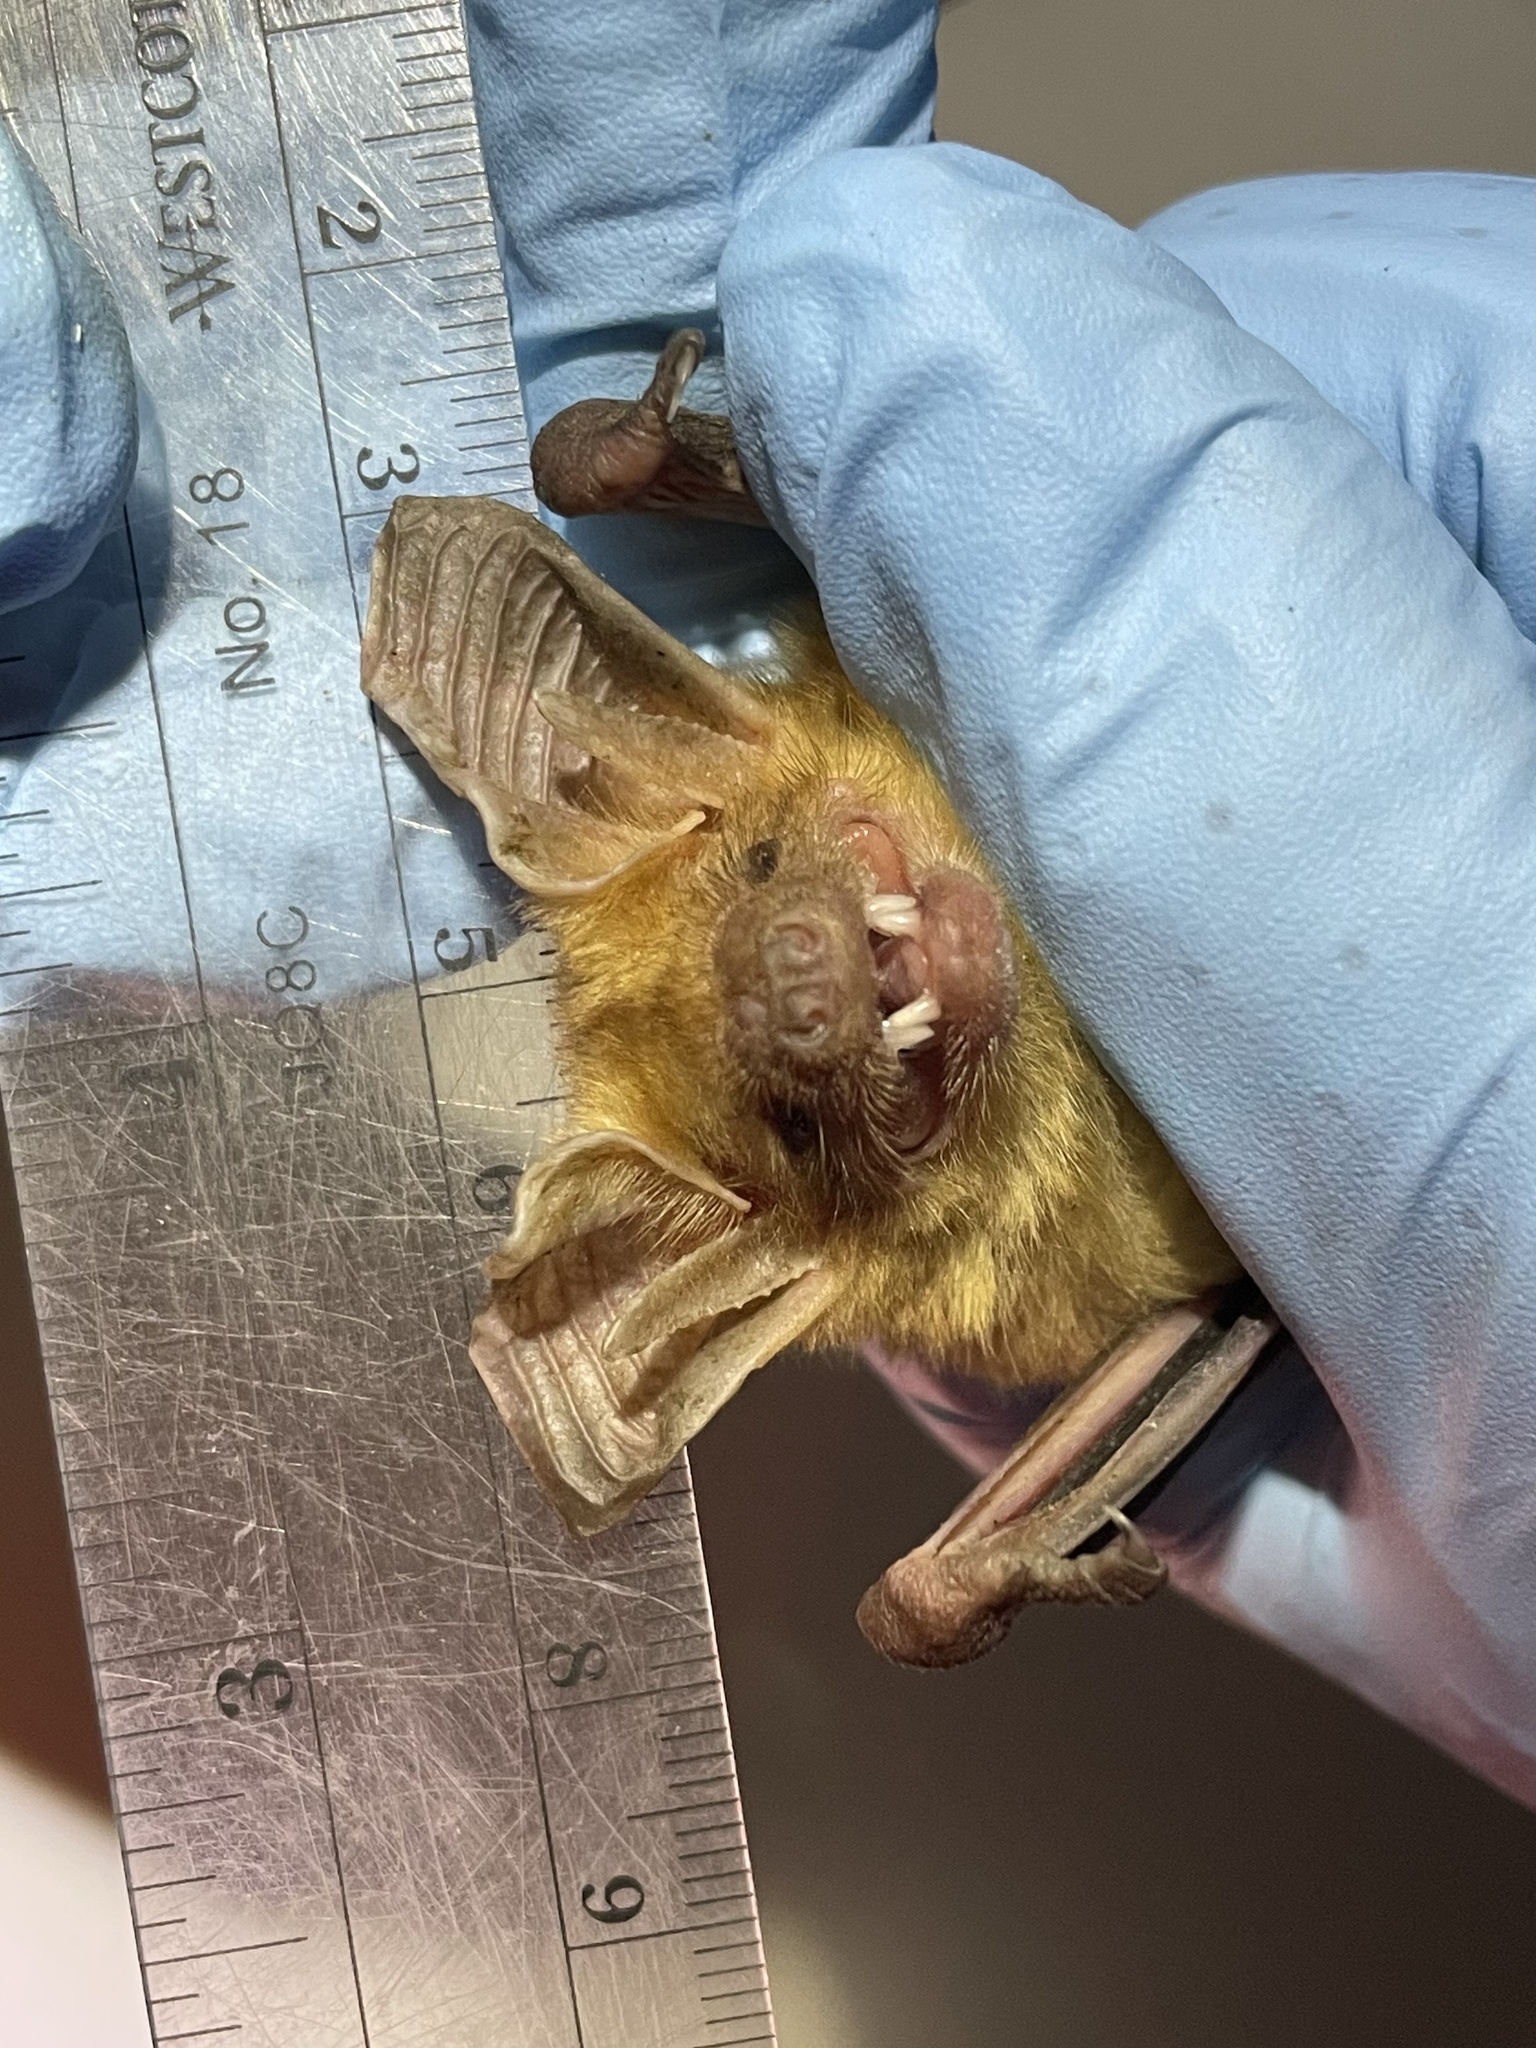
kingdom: Animalia
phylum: Chordata
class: Mammalia
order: Chiroptera
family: Vespertilionidae
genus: Antrozous
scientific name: Antrozous pallidus
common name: Pallid bat
